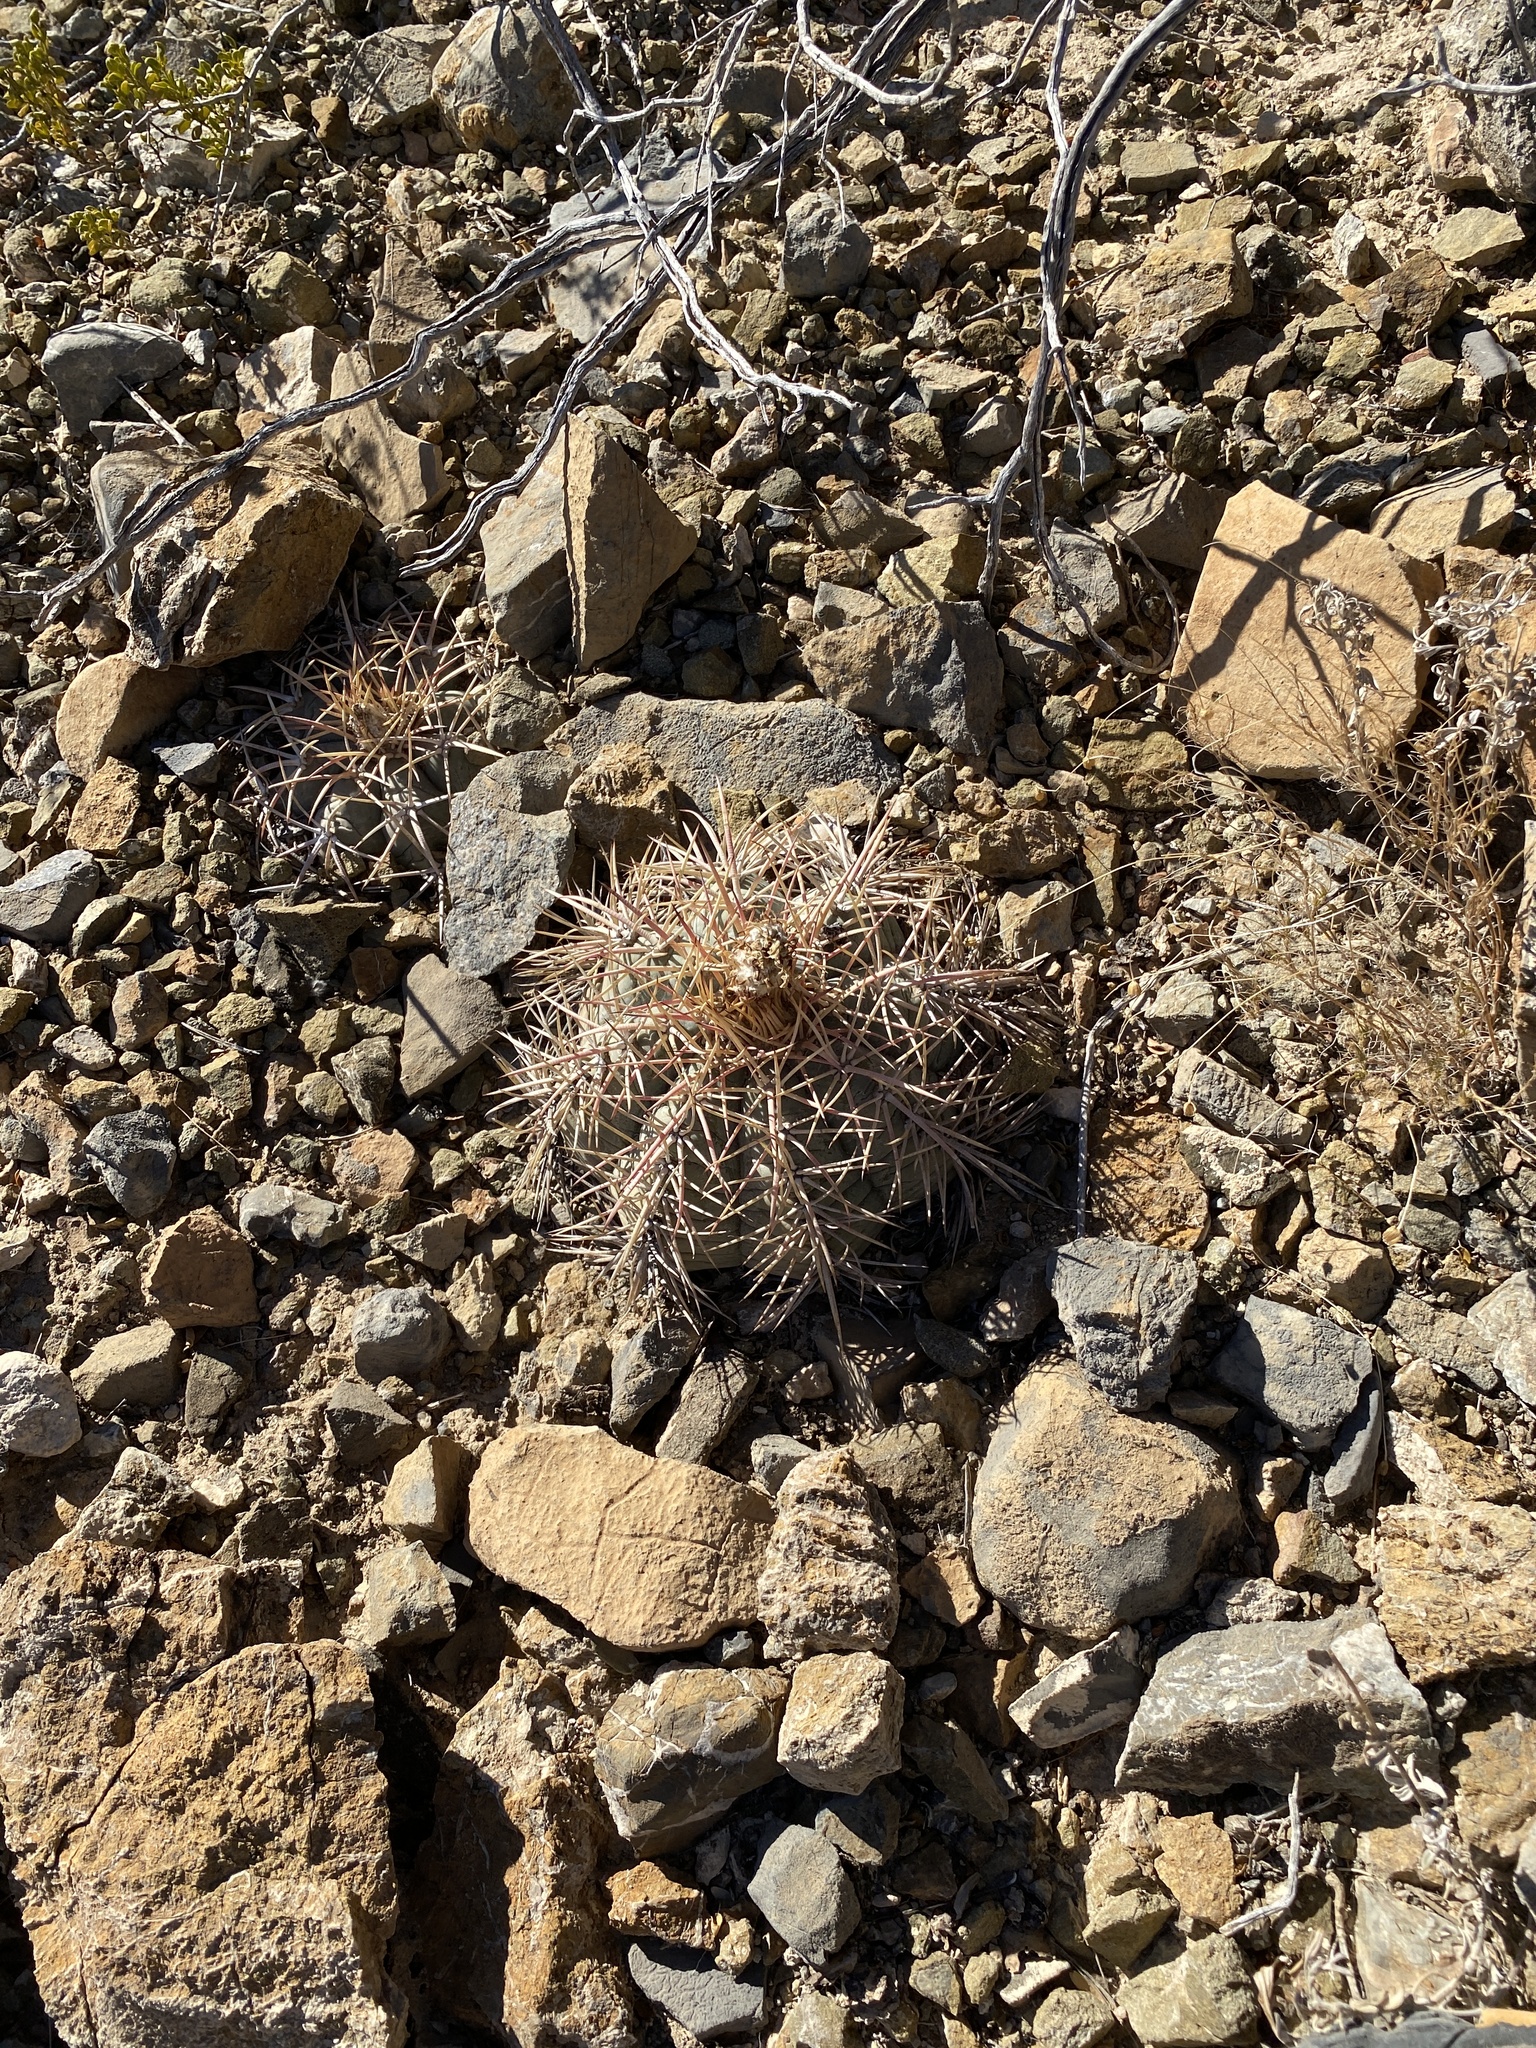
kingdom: Plantae
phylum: Tracheophyta
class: Magnoliopsida
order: Caryophyllales
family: Cactaceae
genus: Echinocactus
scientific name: Echinocactus horizonthalonius
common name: Devilshead
